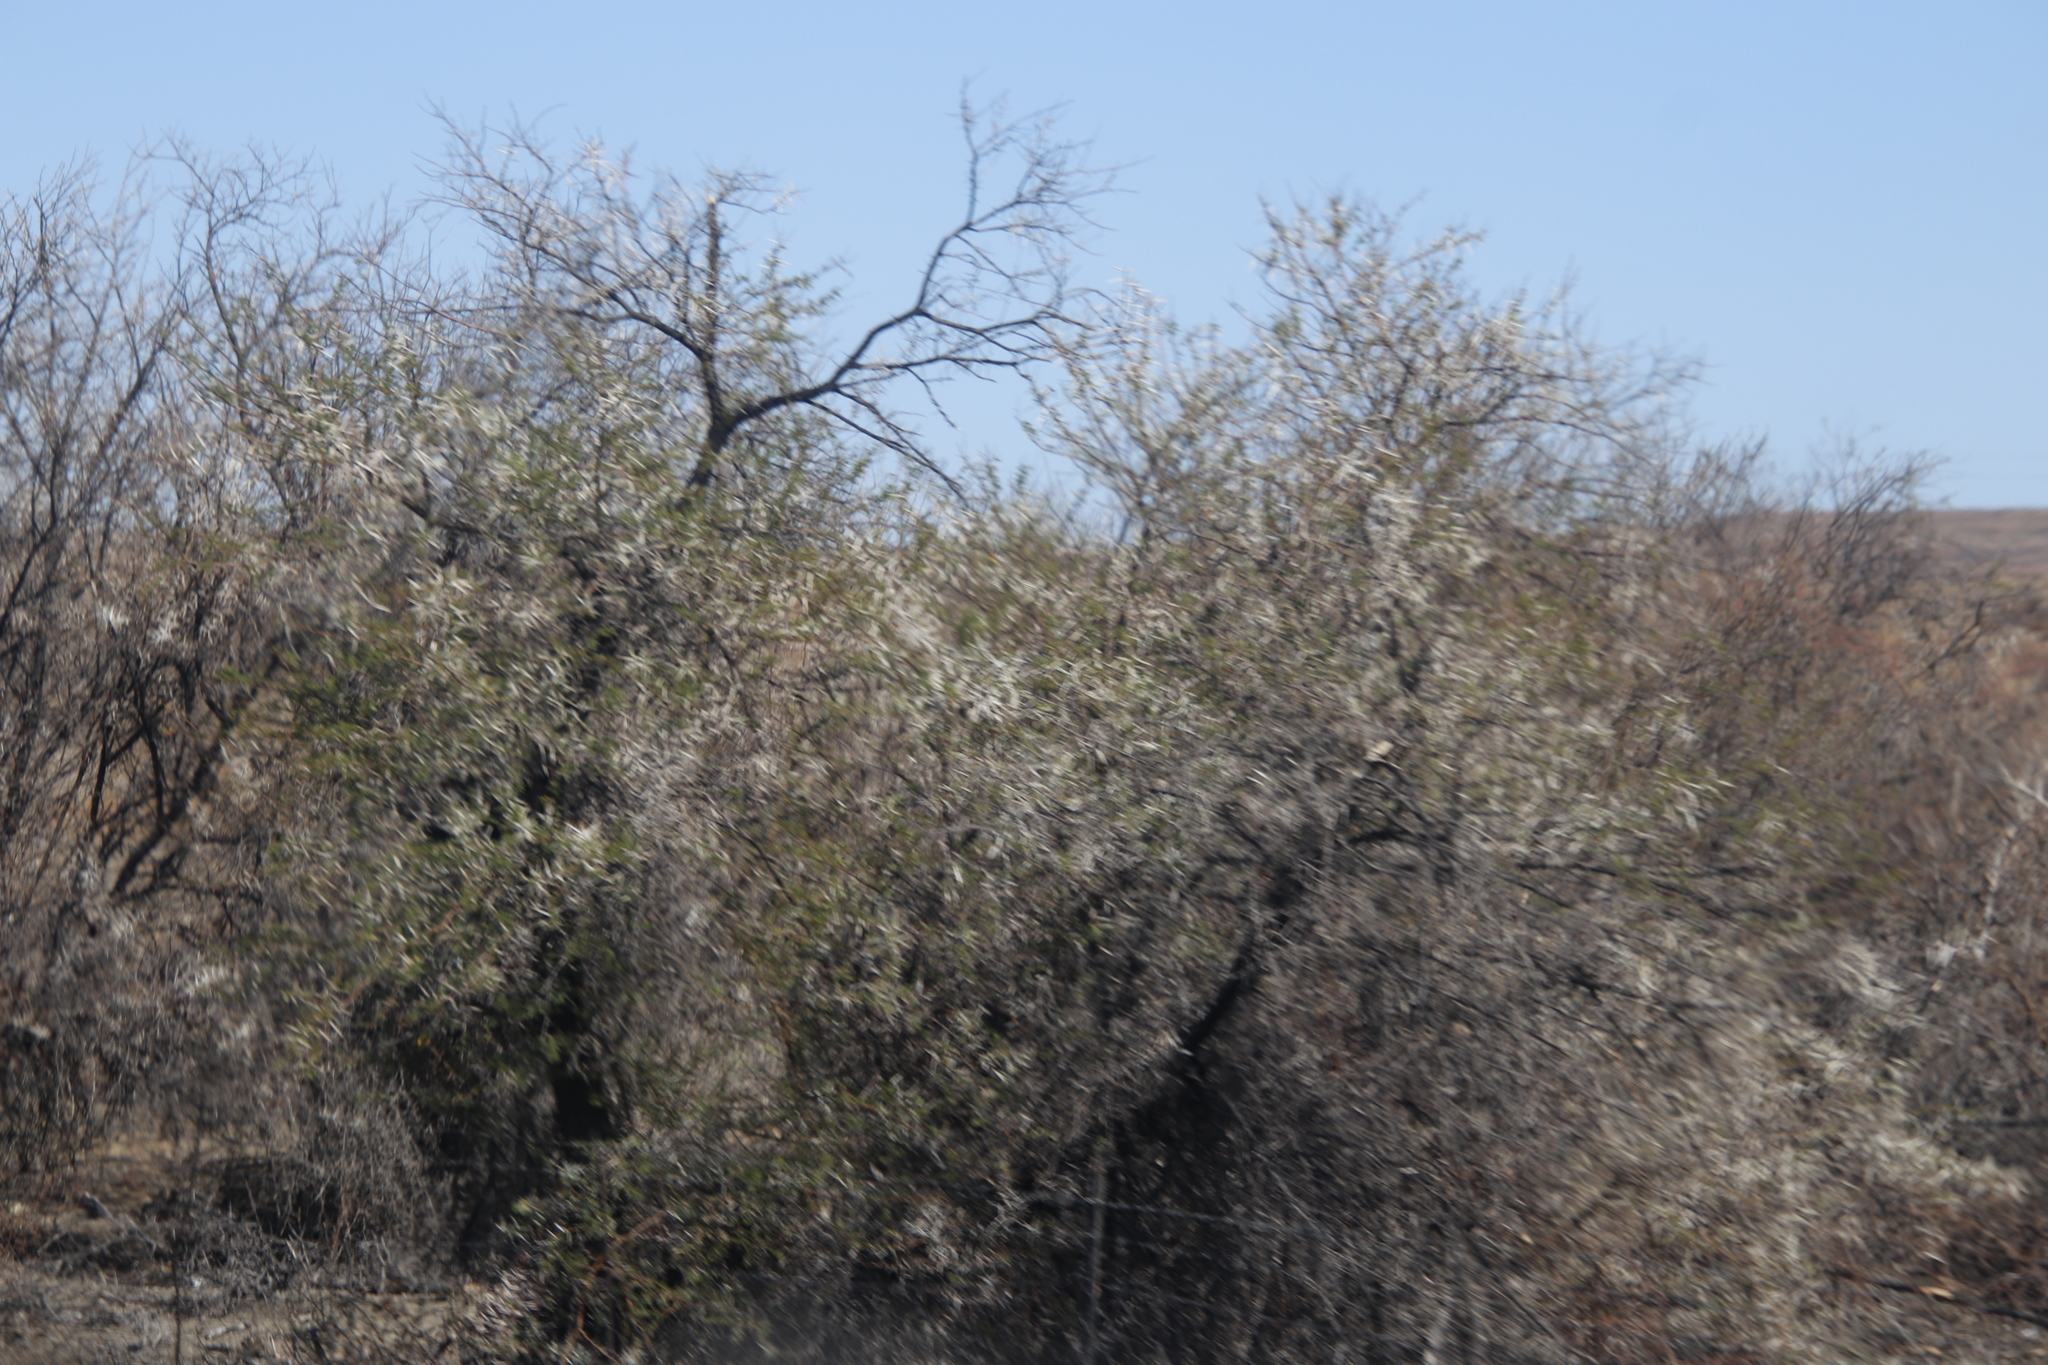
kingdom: Plantae
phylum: Tracheophyta
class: Magnoliopsida
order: Fabales
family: Fabaceae
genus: Vachellia
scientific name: Vachellia karroo
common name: Sweet thorn
